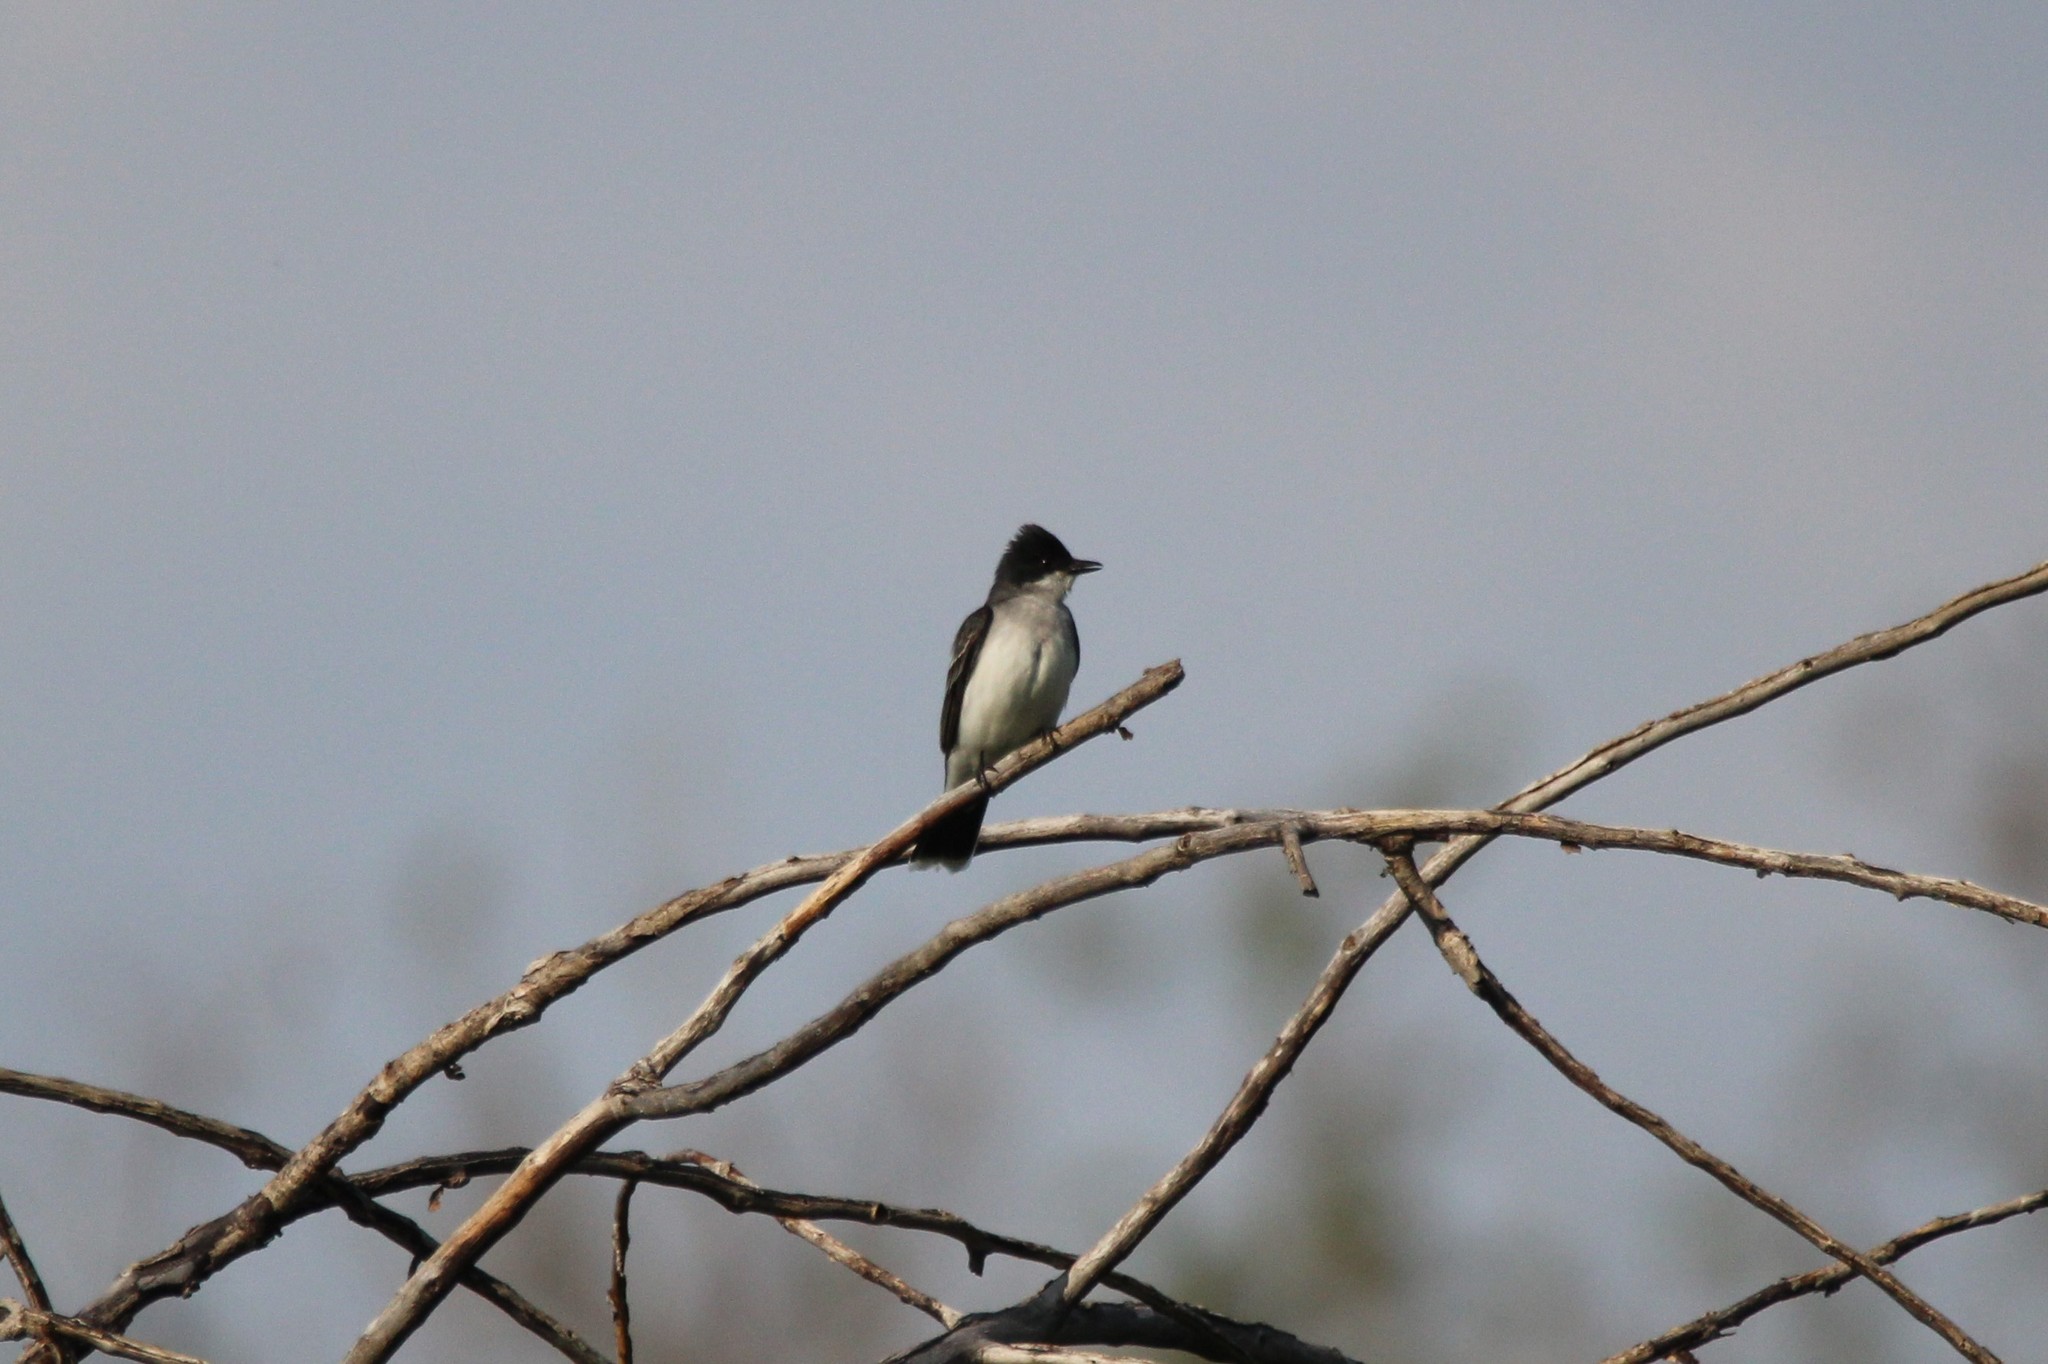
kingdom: Animalia
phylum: Chordata
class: Aves
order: Passeriformes
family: Tyrannidae
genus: Tyrannus
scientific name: Tyrannus tyrannus
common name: Eastern kingbird
